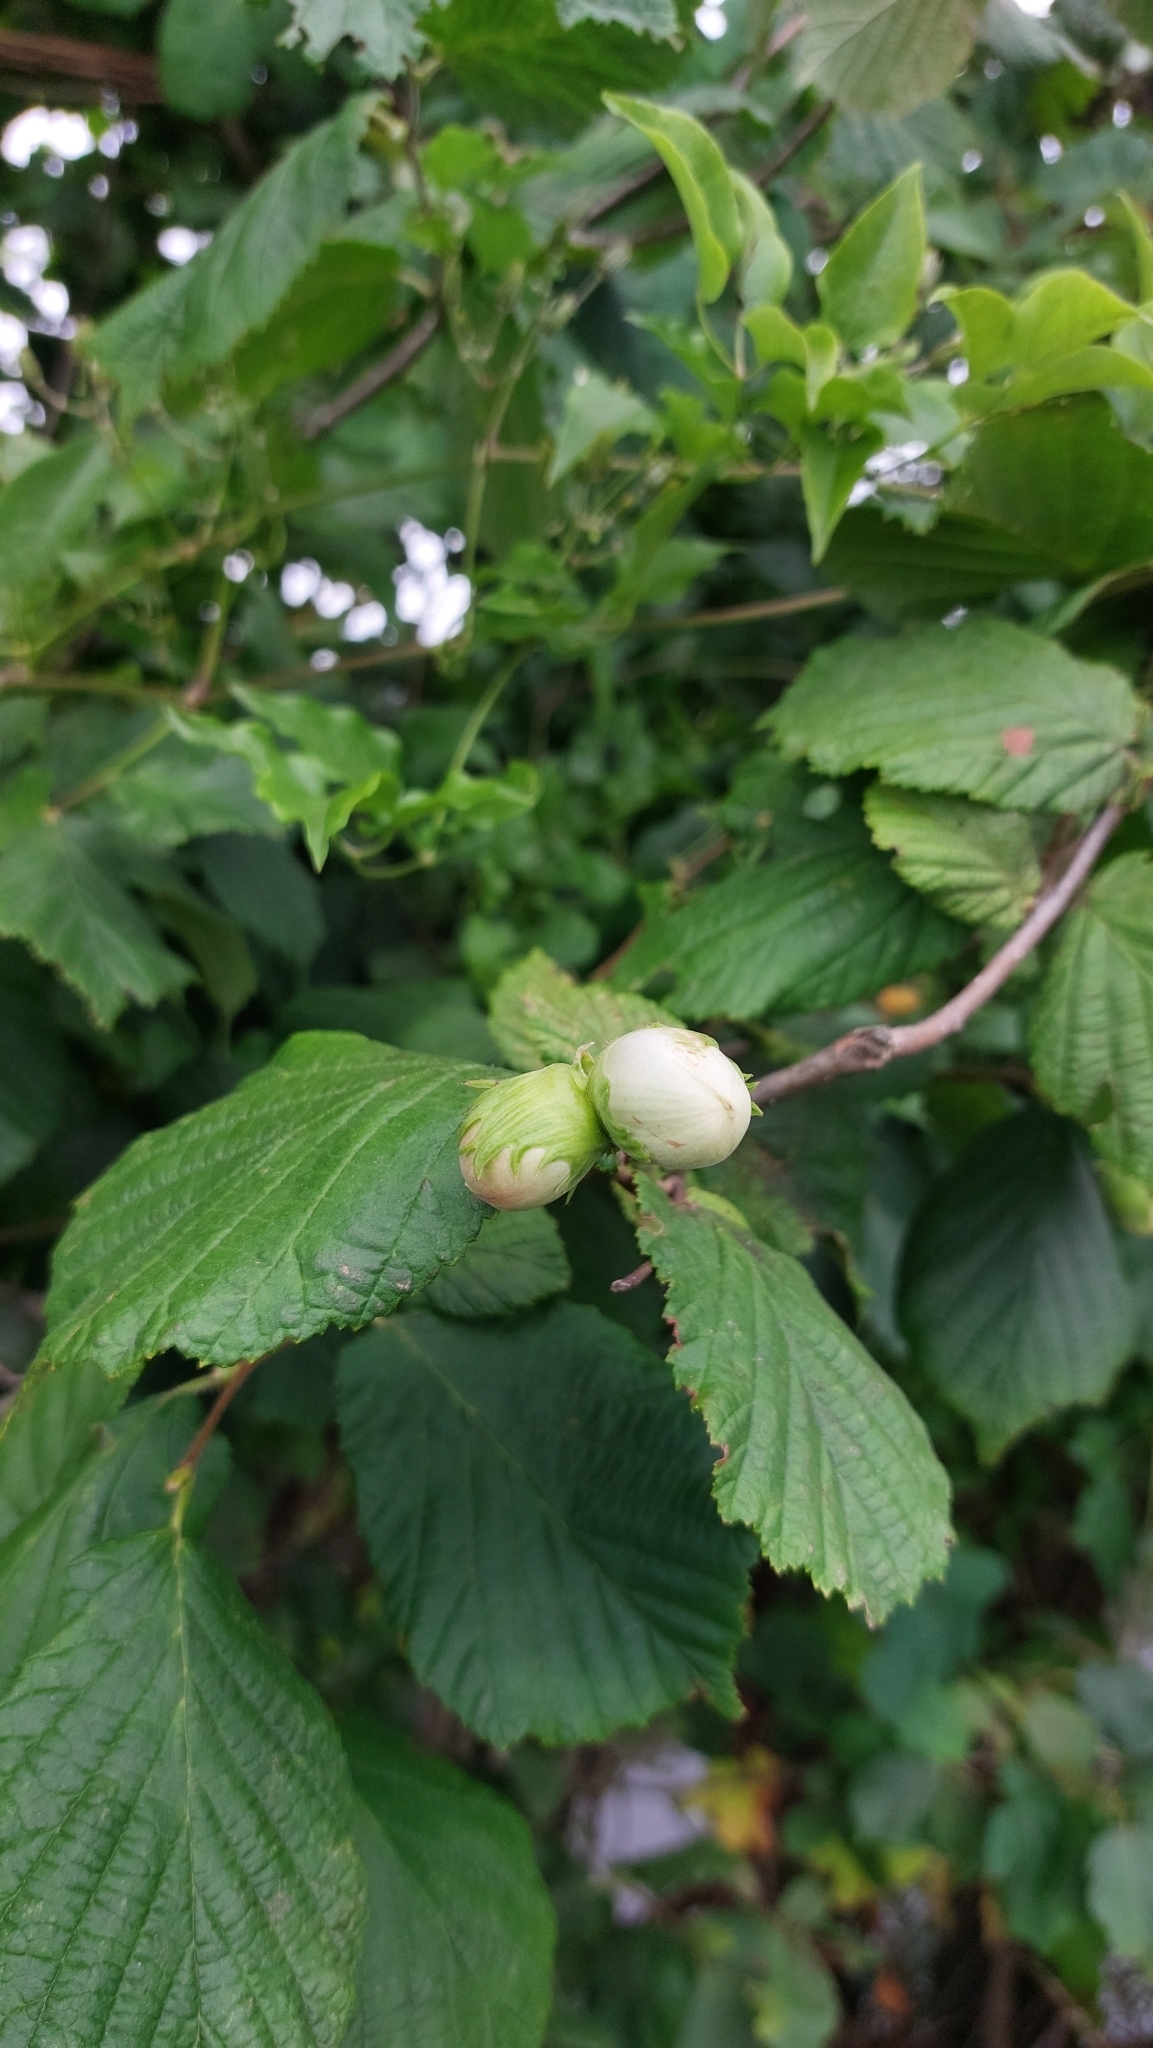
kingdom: Plantae
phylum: Tracheophyta
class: Magnoliopsida
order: Fagales
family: Betulaceae
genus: Corylus
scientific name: Corylus avellana
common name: European hazel
